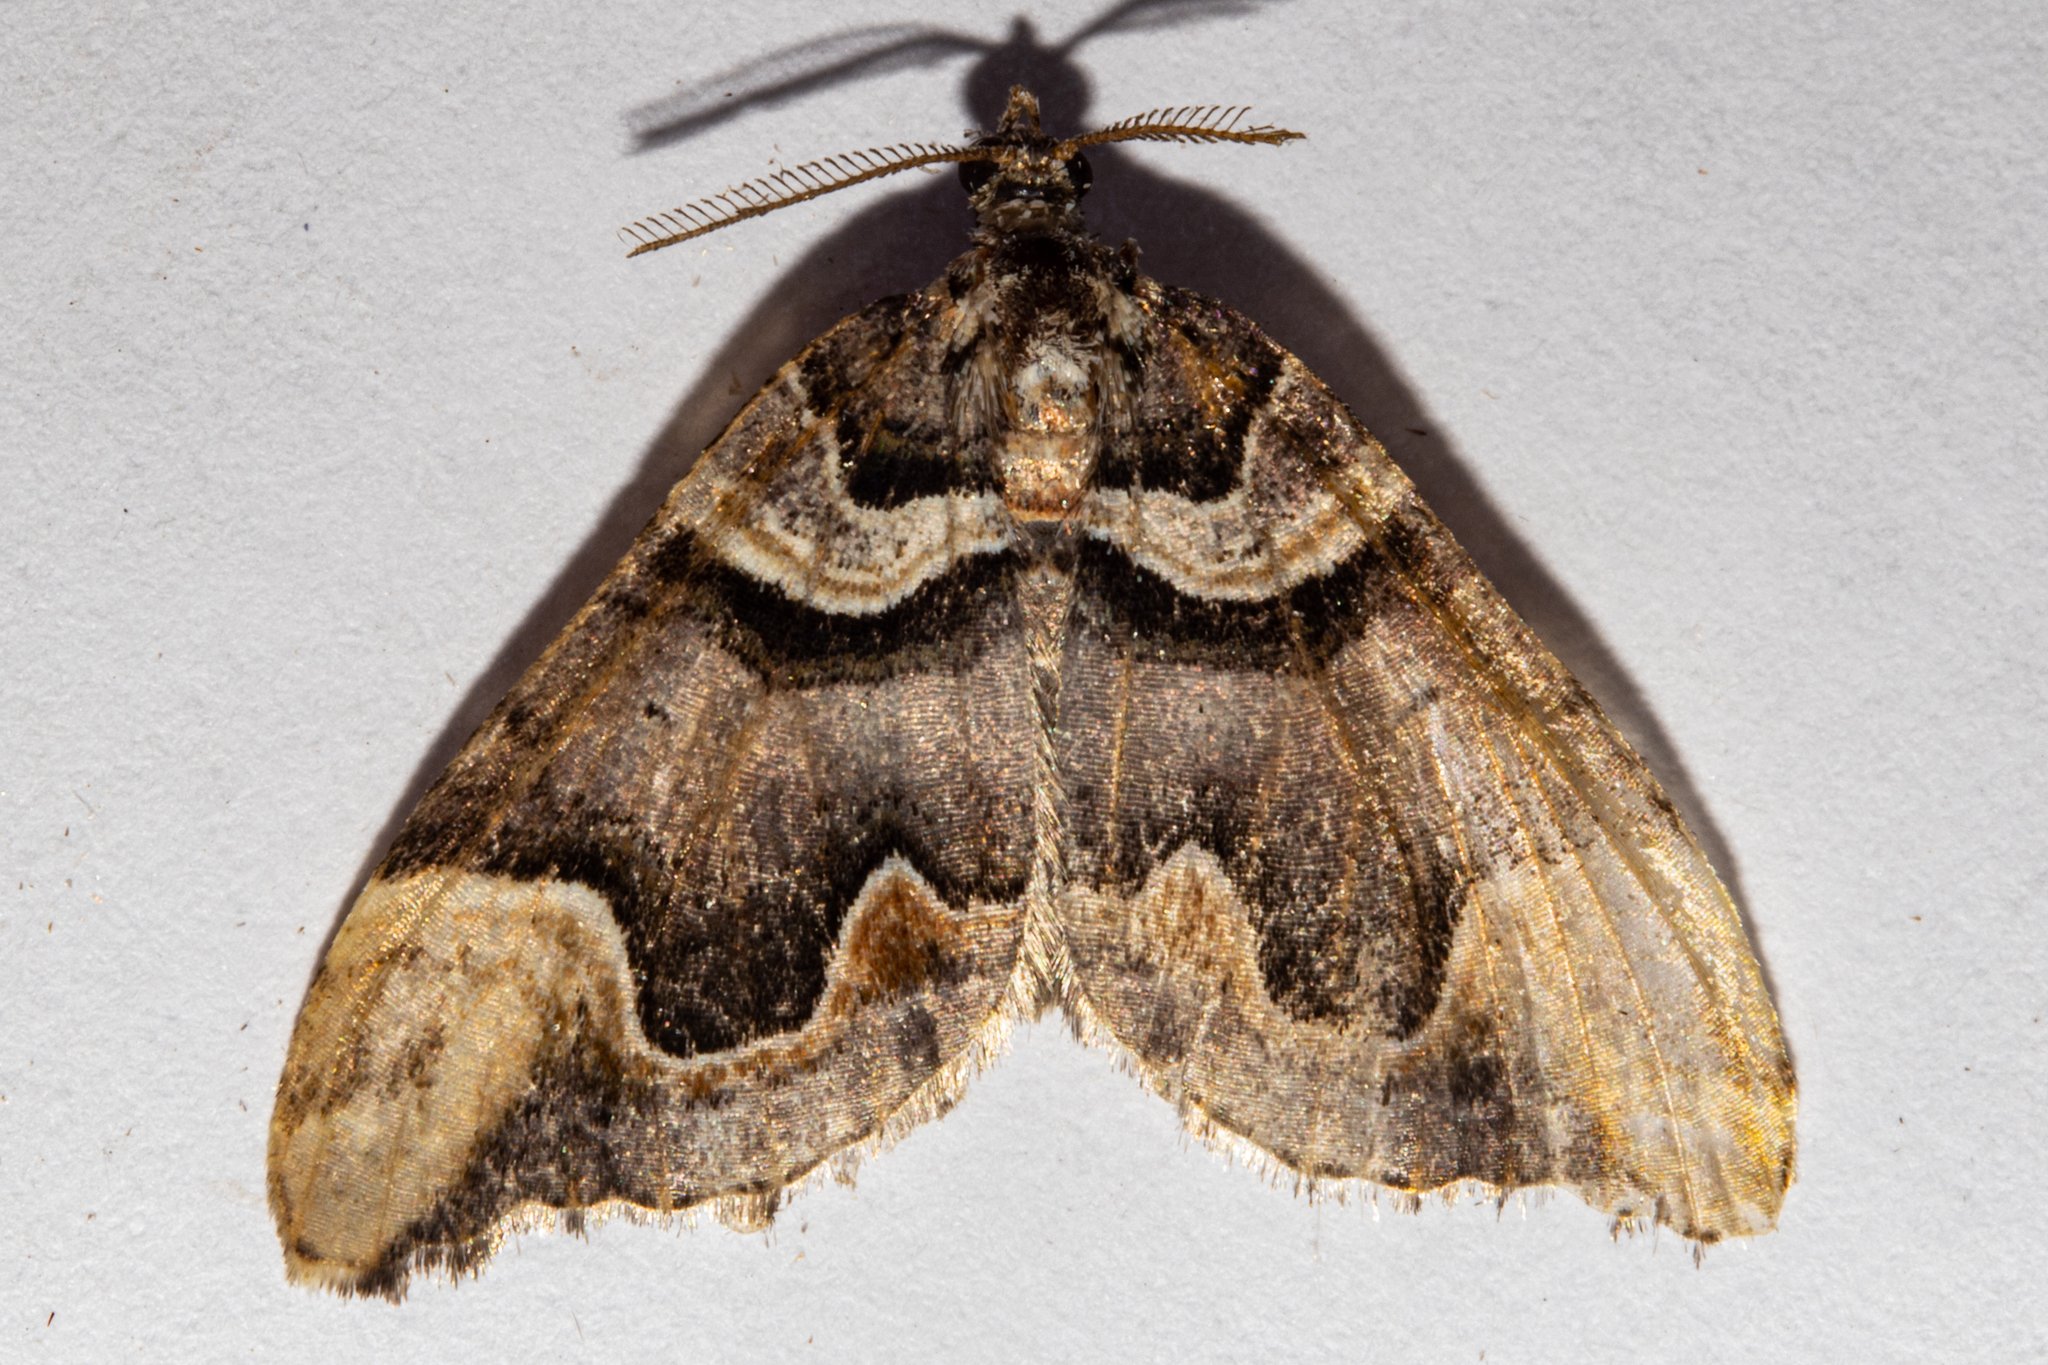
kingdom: Animalia
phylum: Arthropoda
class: Insecta
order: Lepidoptera
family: Geometridae
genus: Asaphodes
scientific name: Asaphodes chlamydota
